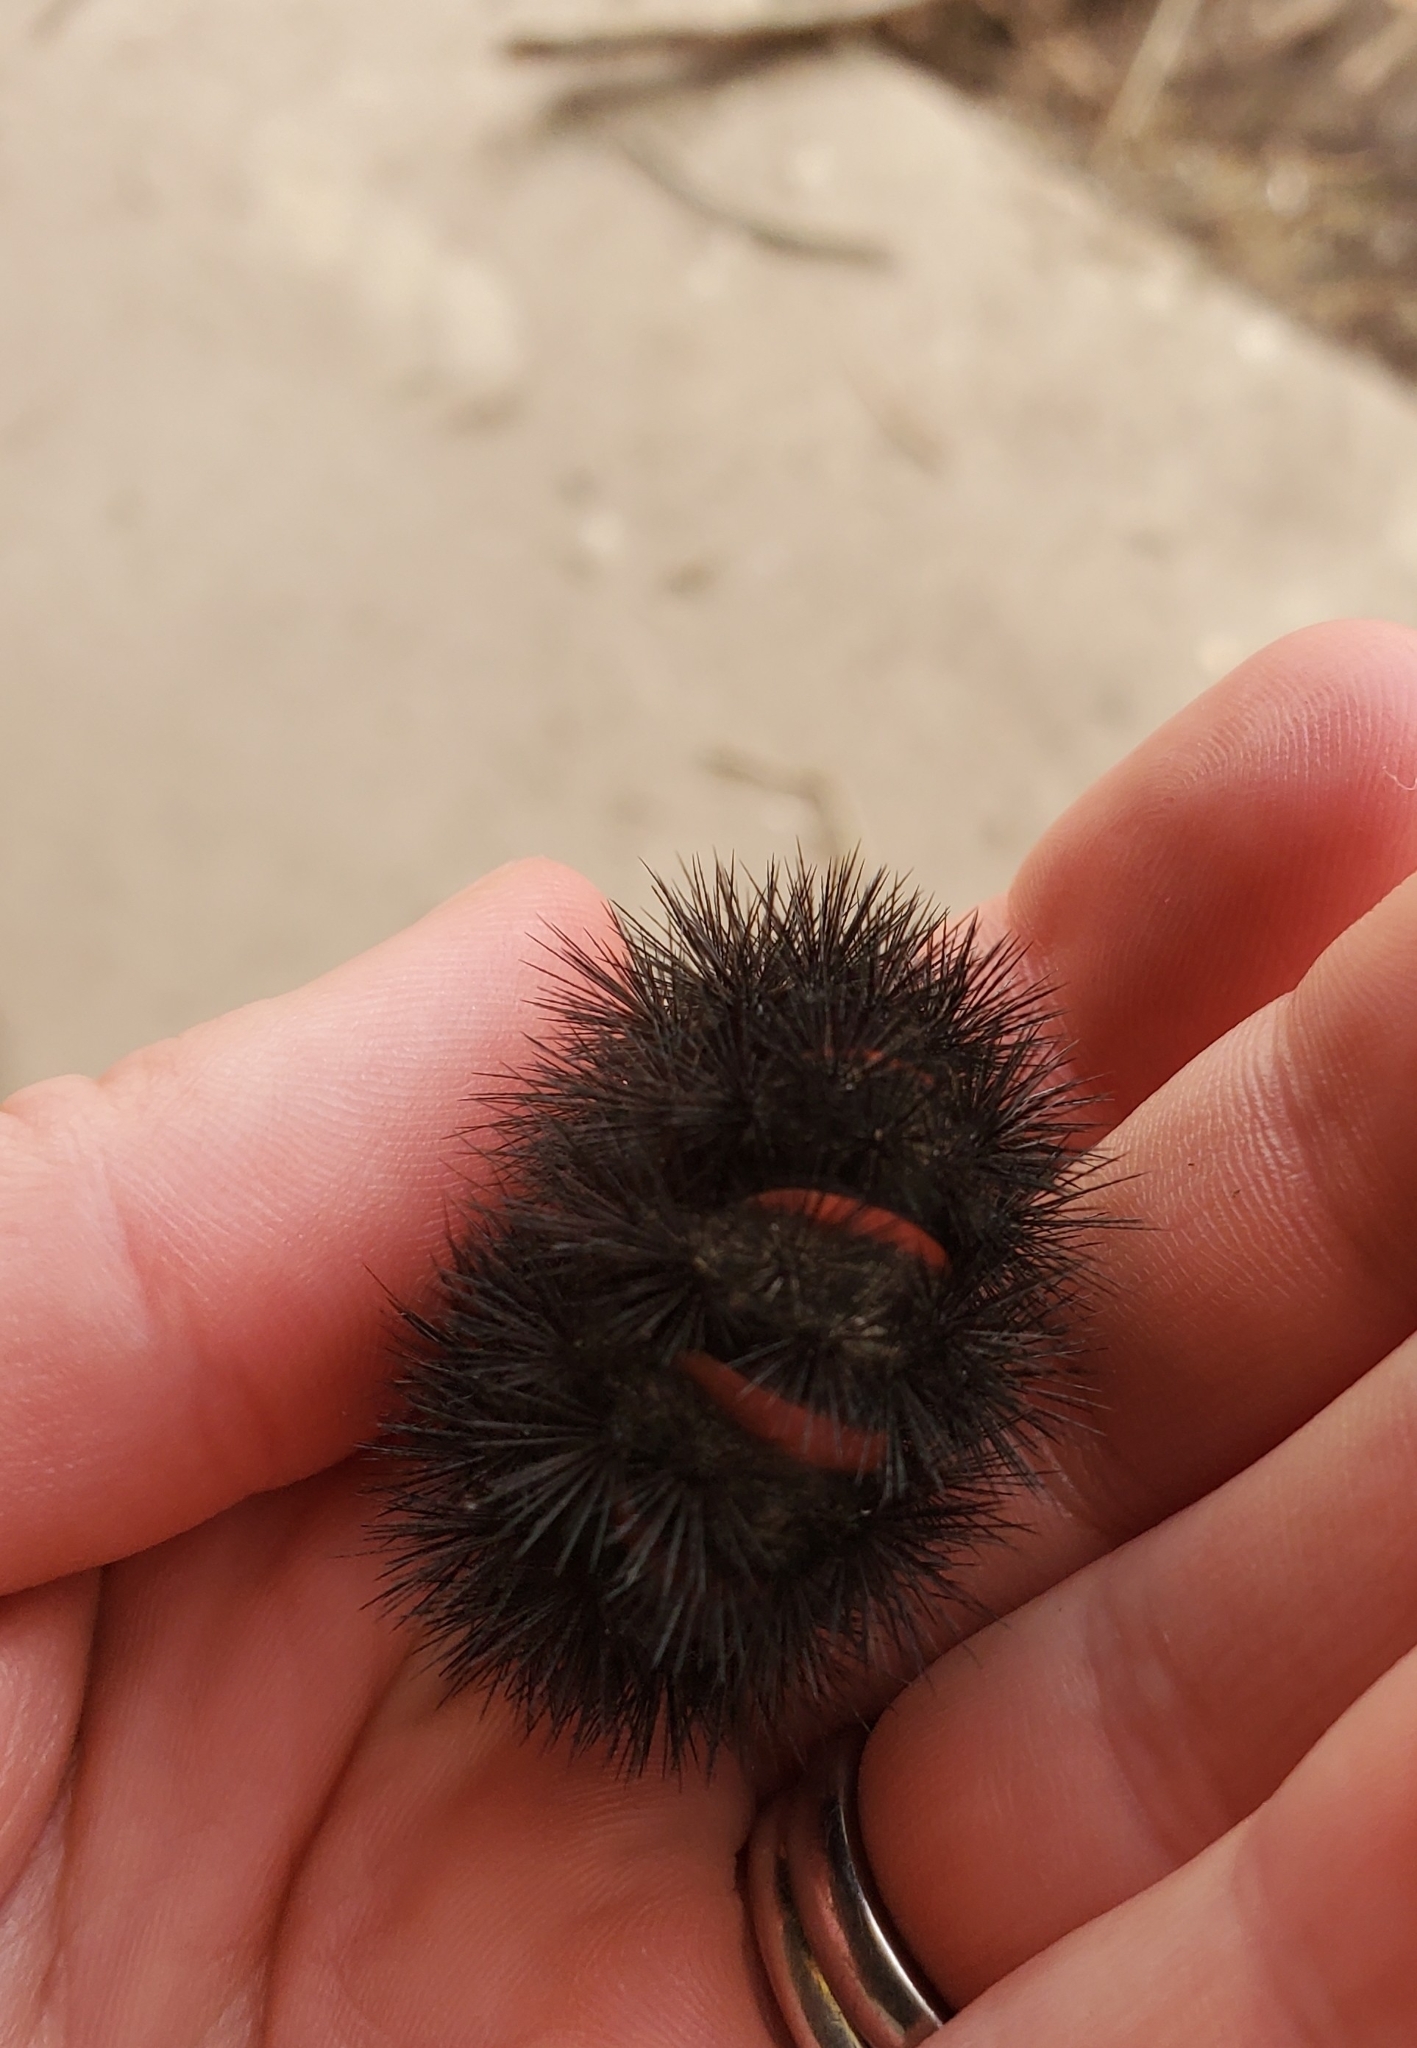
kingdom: Animalia
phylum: Arthropoda
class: Insecta
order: Lepidoptera
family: Erebidae
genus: Hypercompe
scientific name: Hypercompe scribonia
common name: Giant leopard moth
